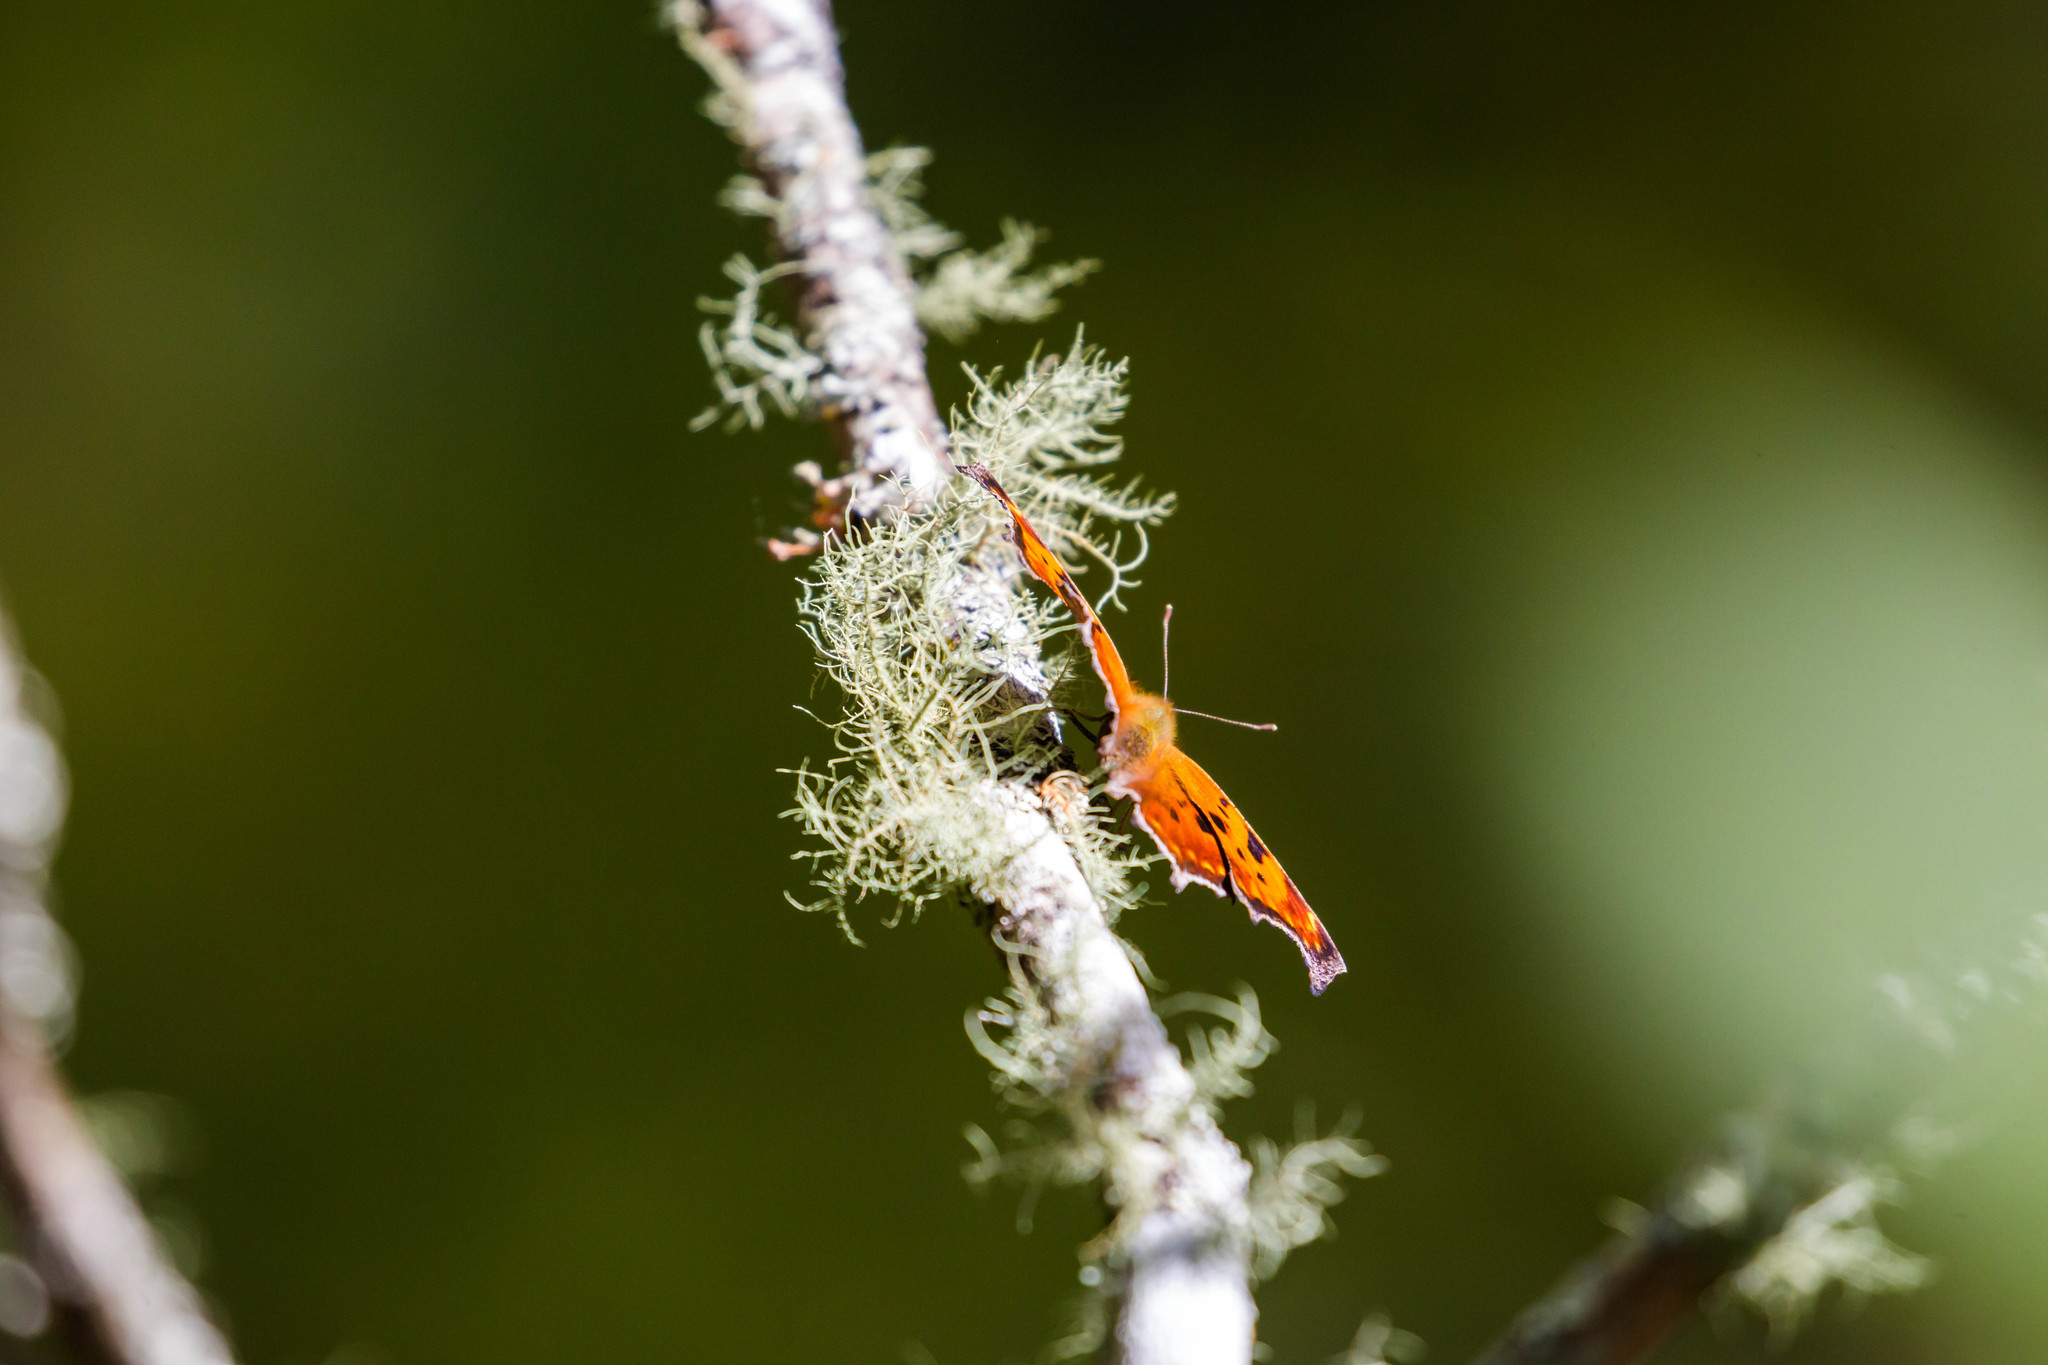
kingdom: Animalia
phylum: Arthropoda
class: Insecta
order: Lepidoptera
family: Nymphalidae
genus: Polygonia
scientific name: Polygonia comma
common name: Eastern comma
